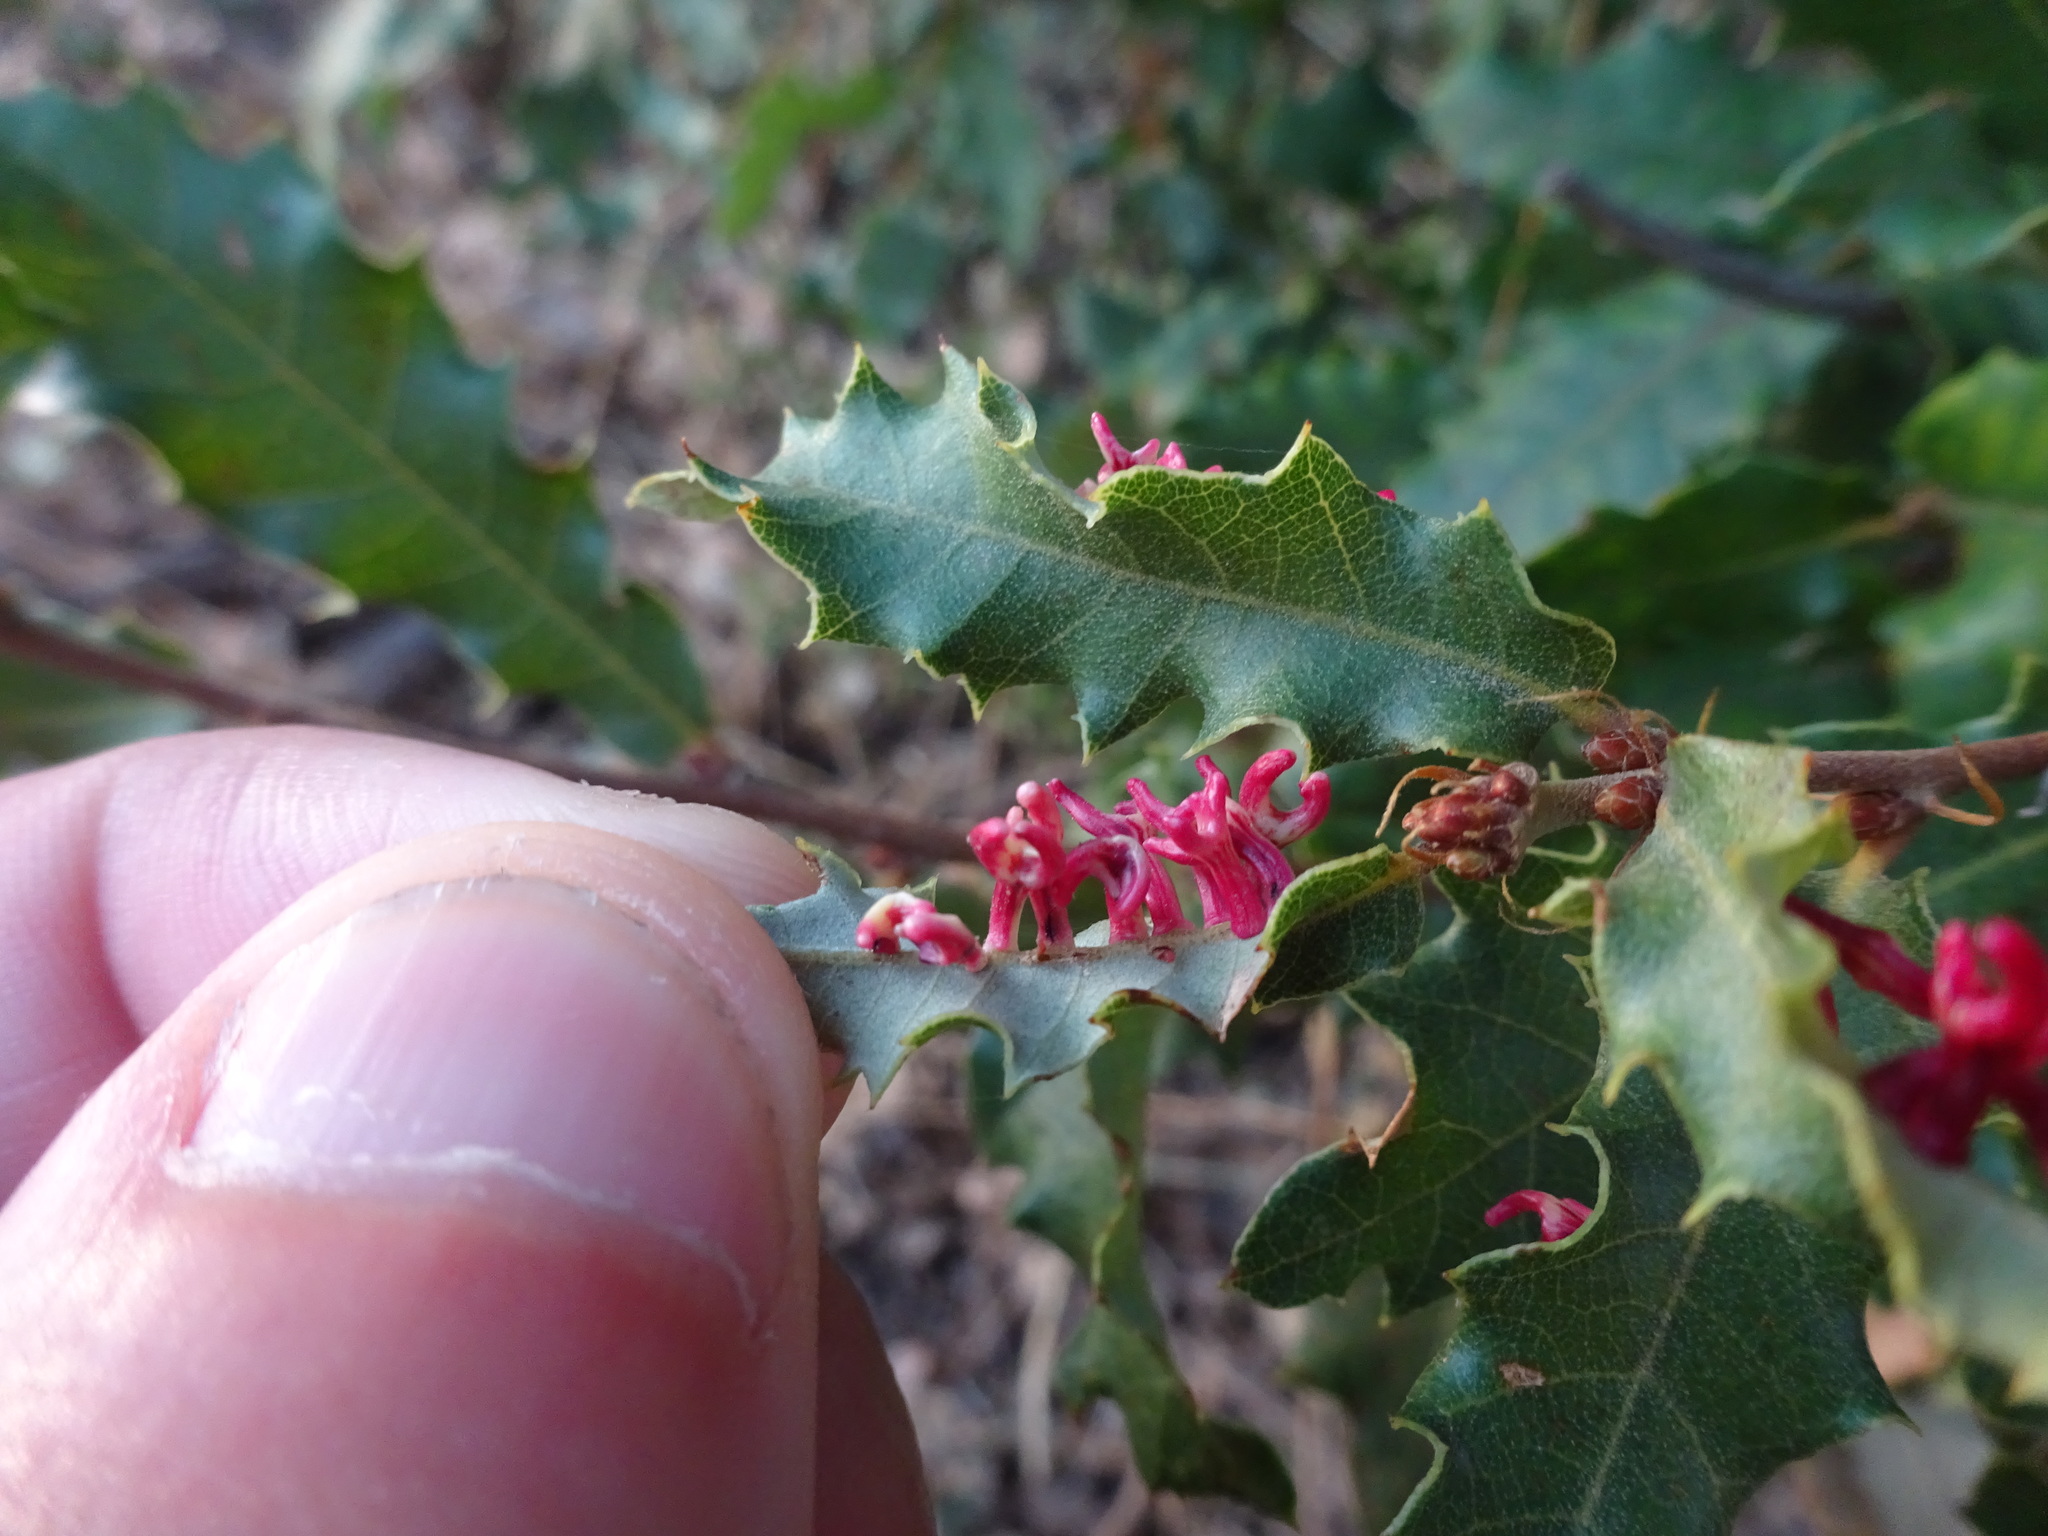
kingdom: Animalia
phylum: Arthropoda
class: Insecta
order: Hymenoptera
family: Cynipidae
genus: Trigonaspis
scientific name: Trigonaspis mendesi
